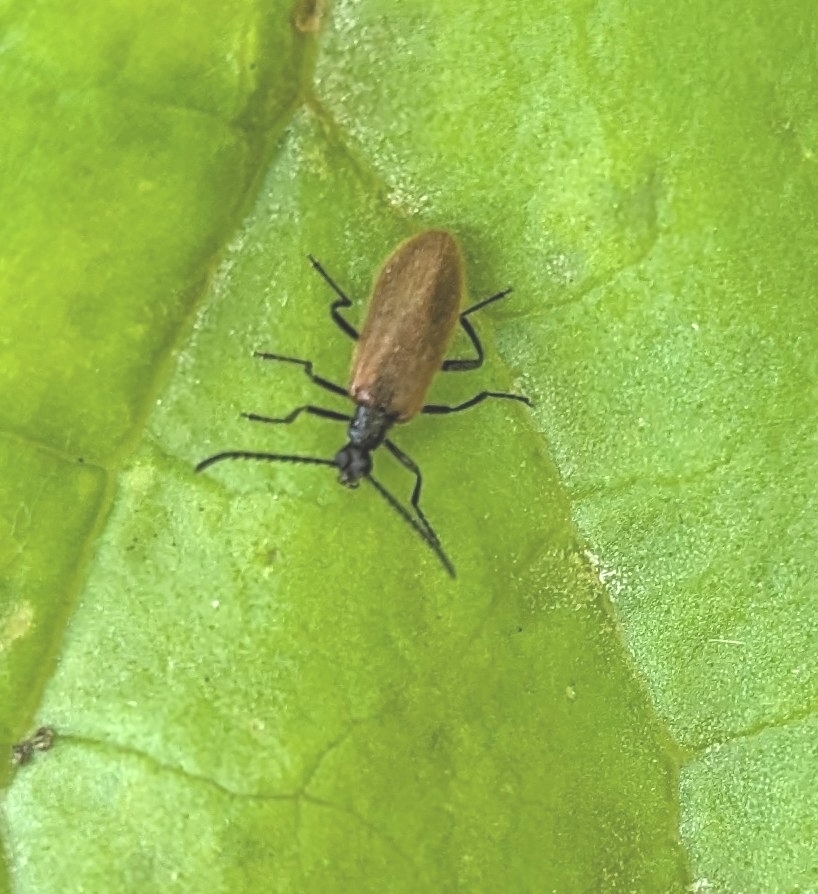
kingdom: Animalia
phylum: Arthropoda
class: Insecta
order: Coleoptera
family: Tenebrionidae
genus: Lagria
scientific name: Lagria hirta
